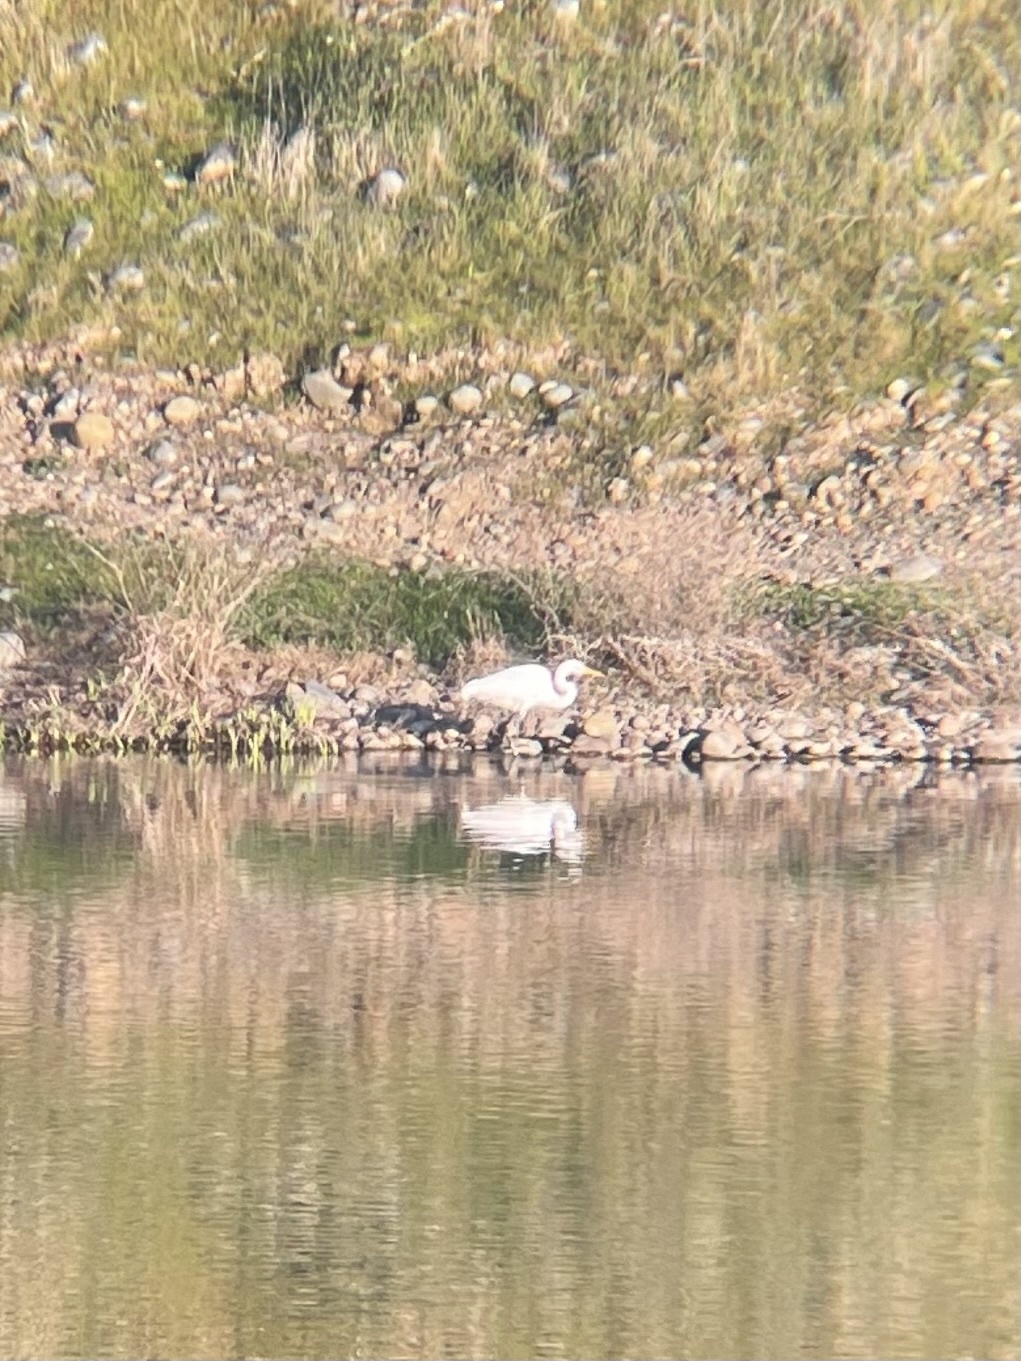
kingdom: Animalia
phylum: Chordata
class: Aves
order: Pelecaniformes
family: Ardeidae
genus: Ardea
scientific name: Ardea alba
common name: Great egret
